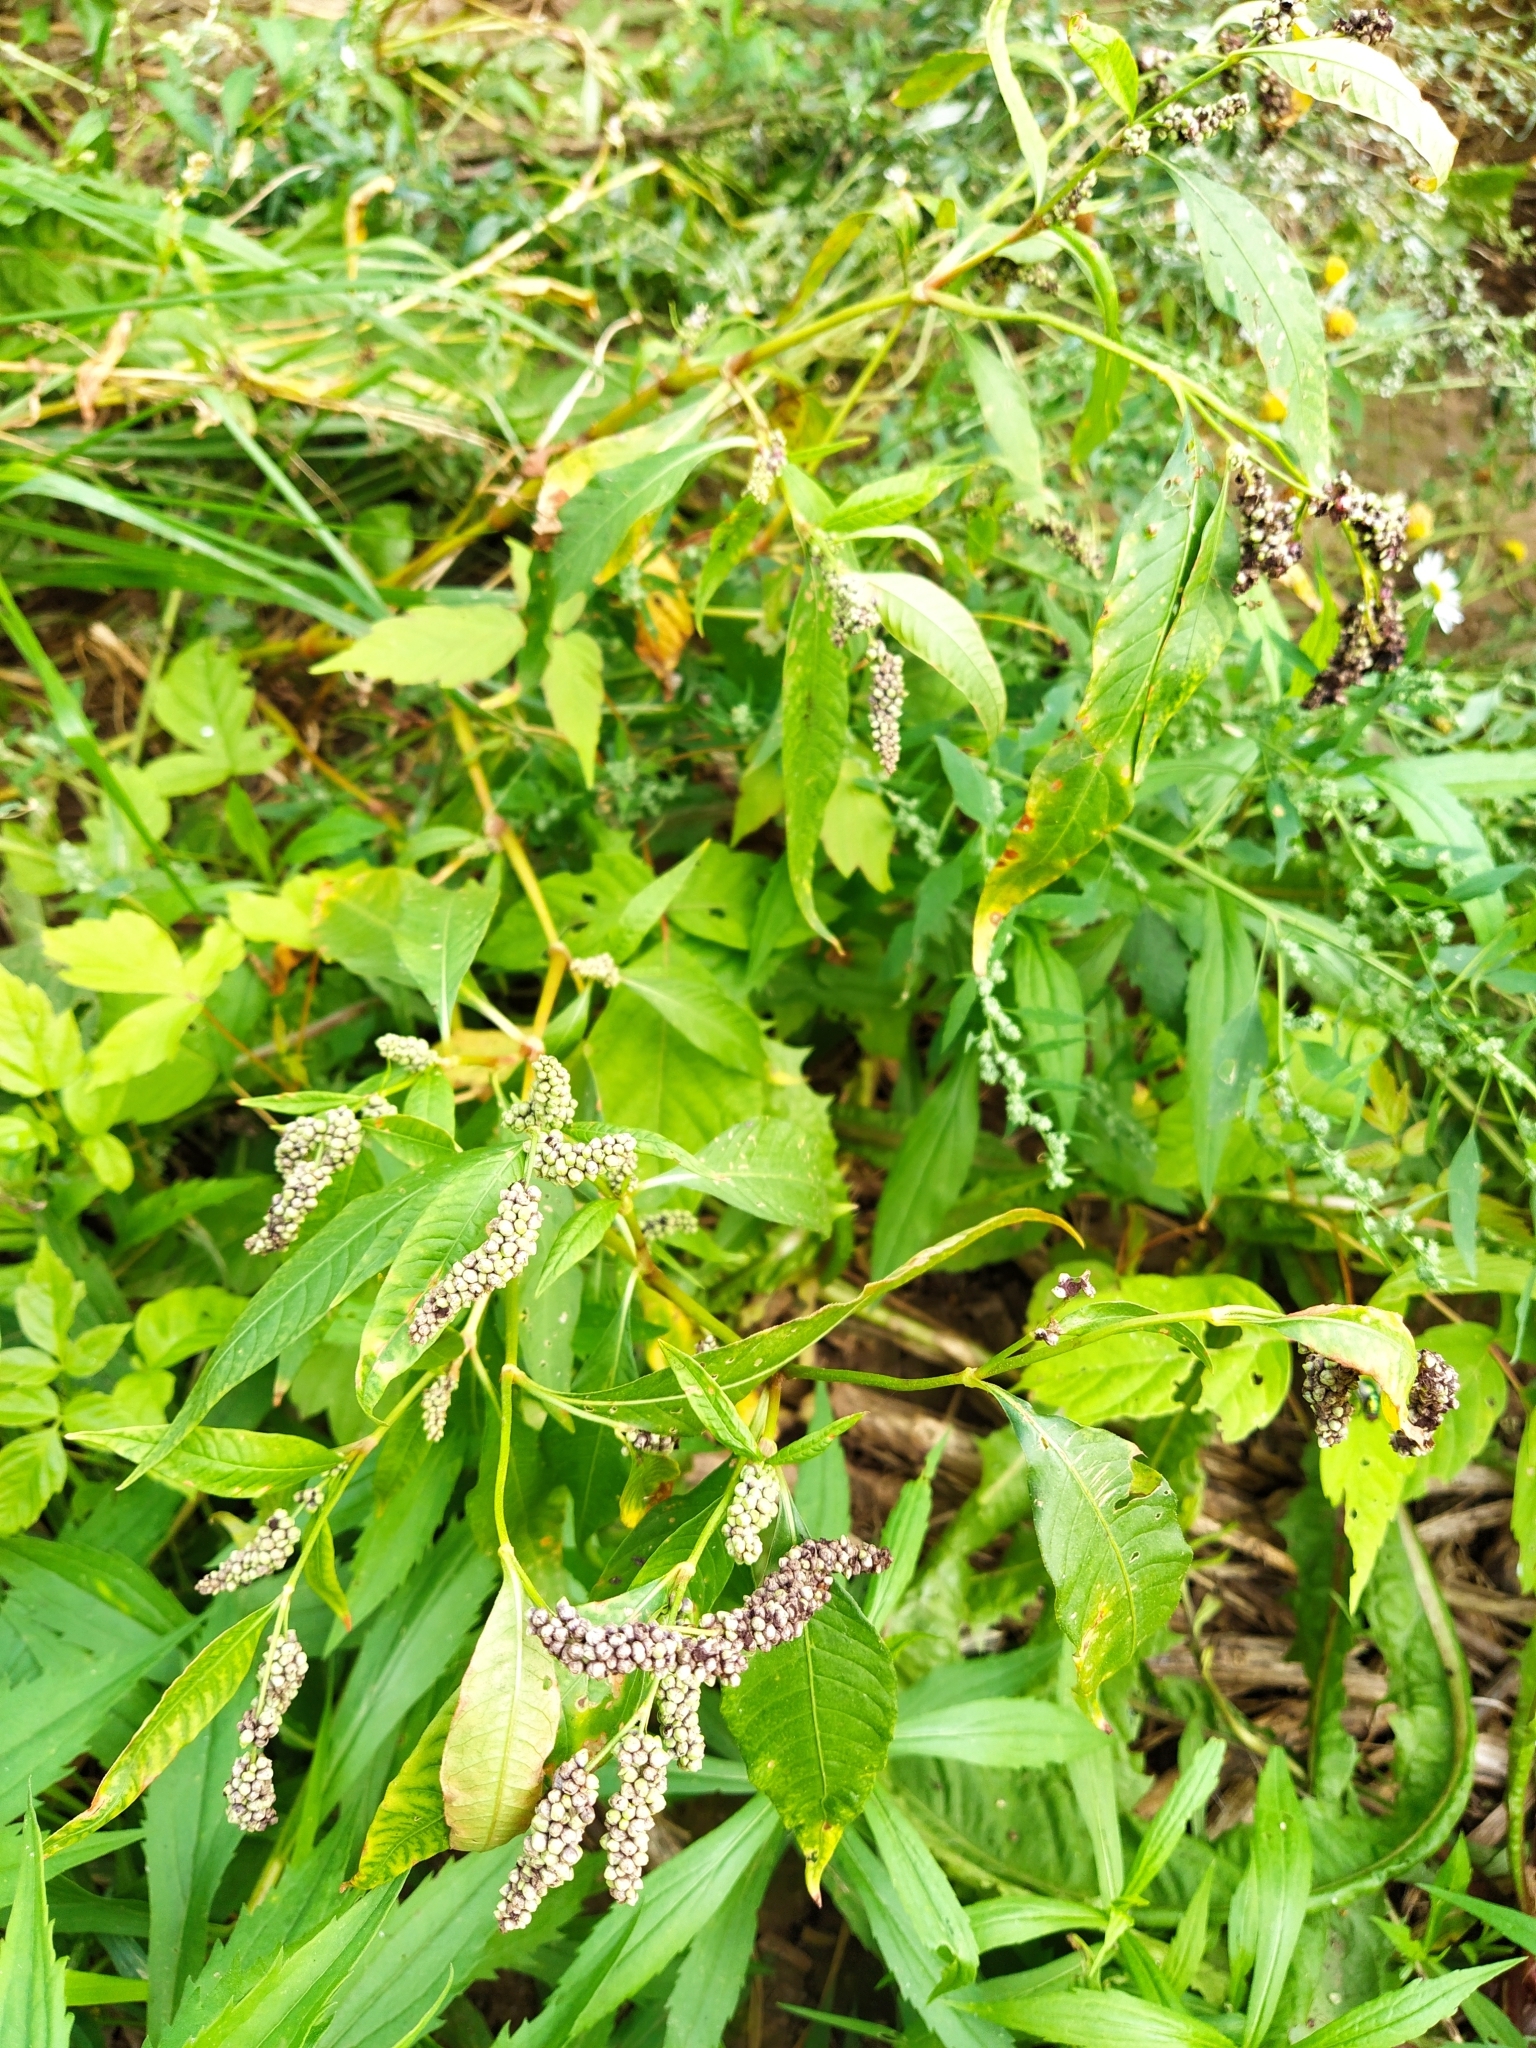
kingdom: Plantae
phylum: Tracheophyta
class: Magnoliopsida
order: Caryophyllales
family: Polygonaceae
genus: Persicaria
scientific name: Persicaria lapathifolia
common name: Curlytop knotweed
